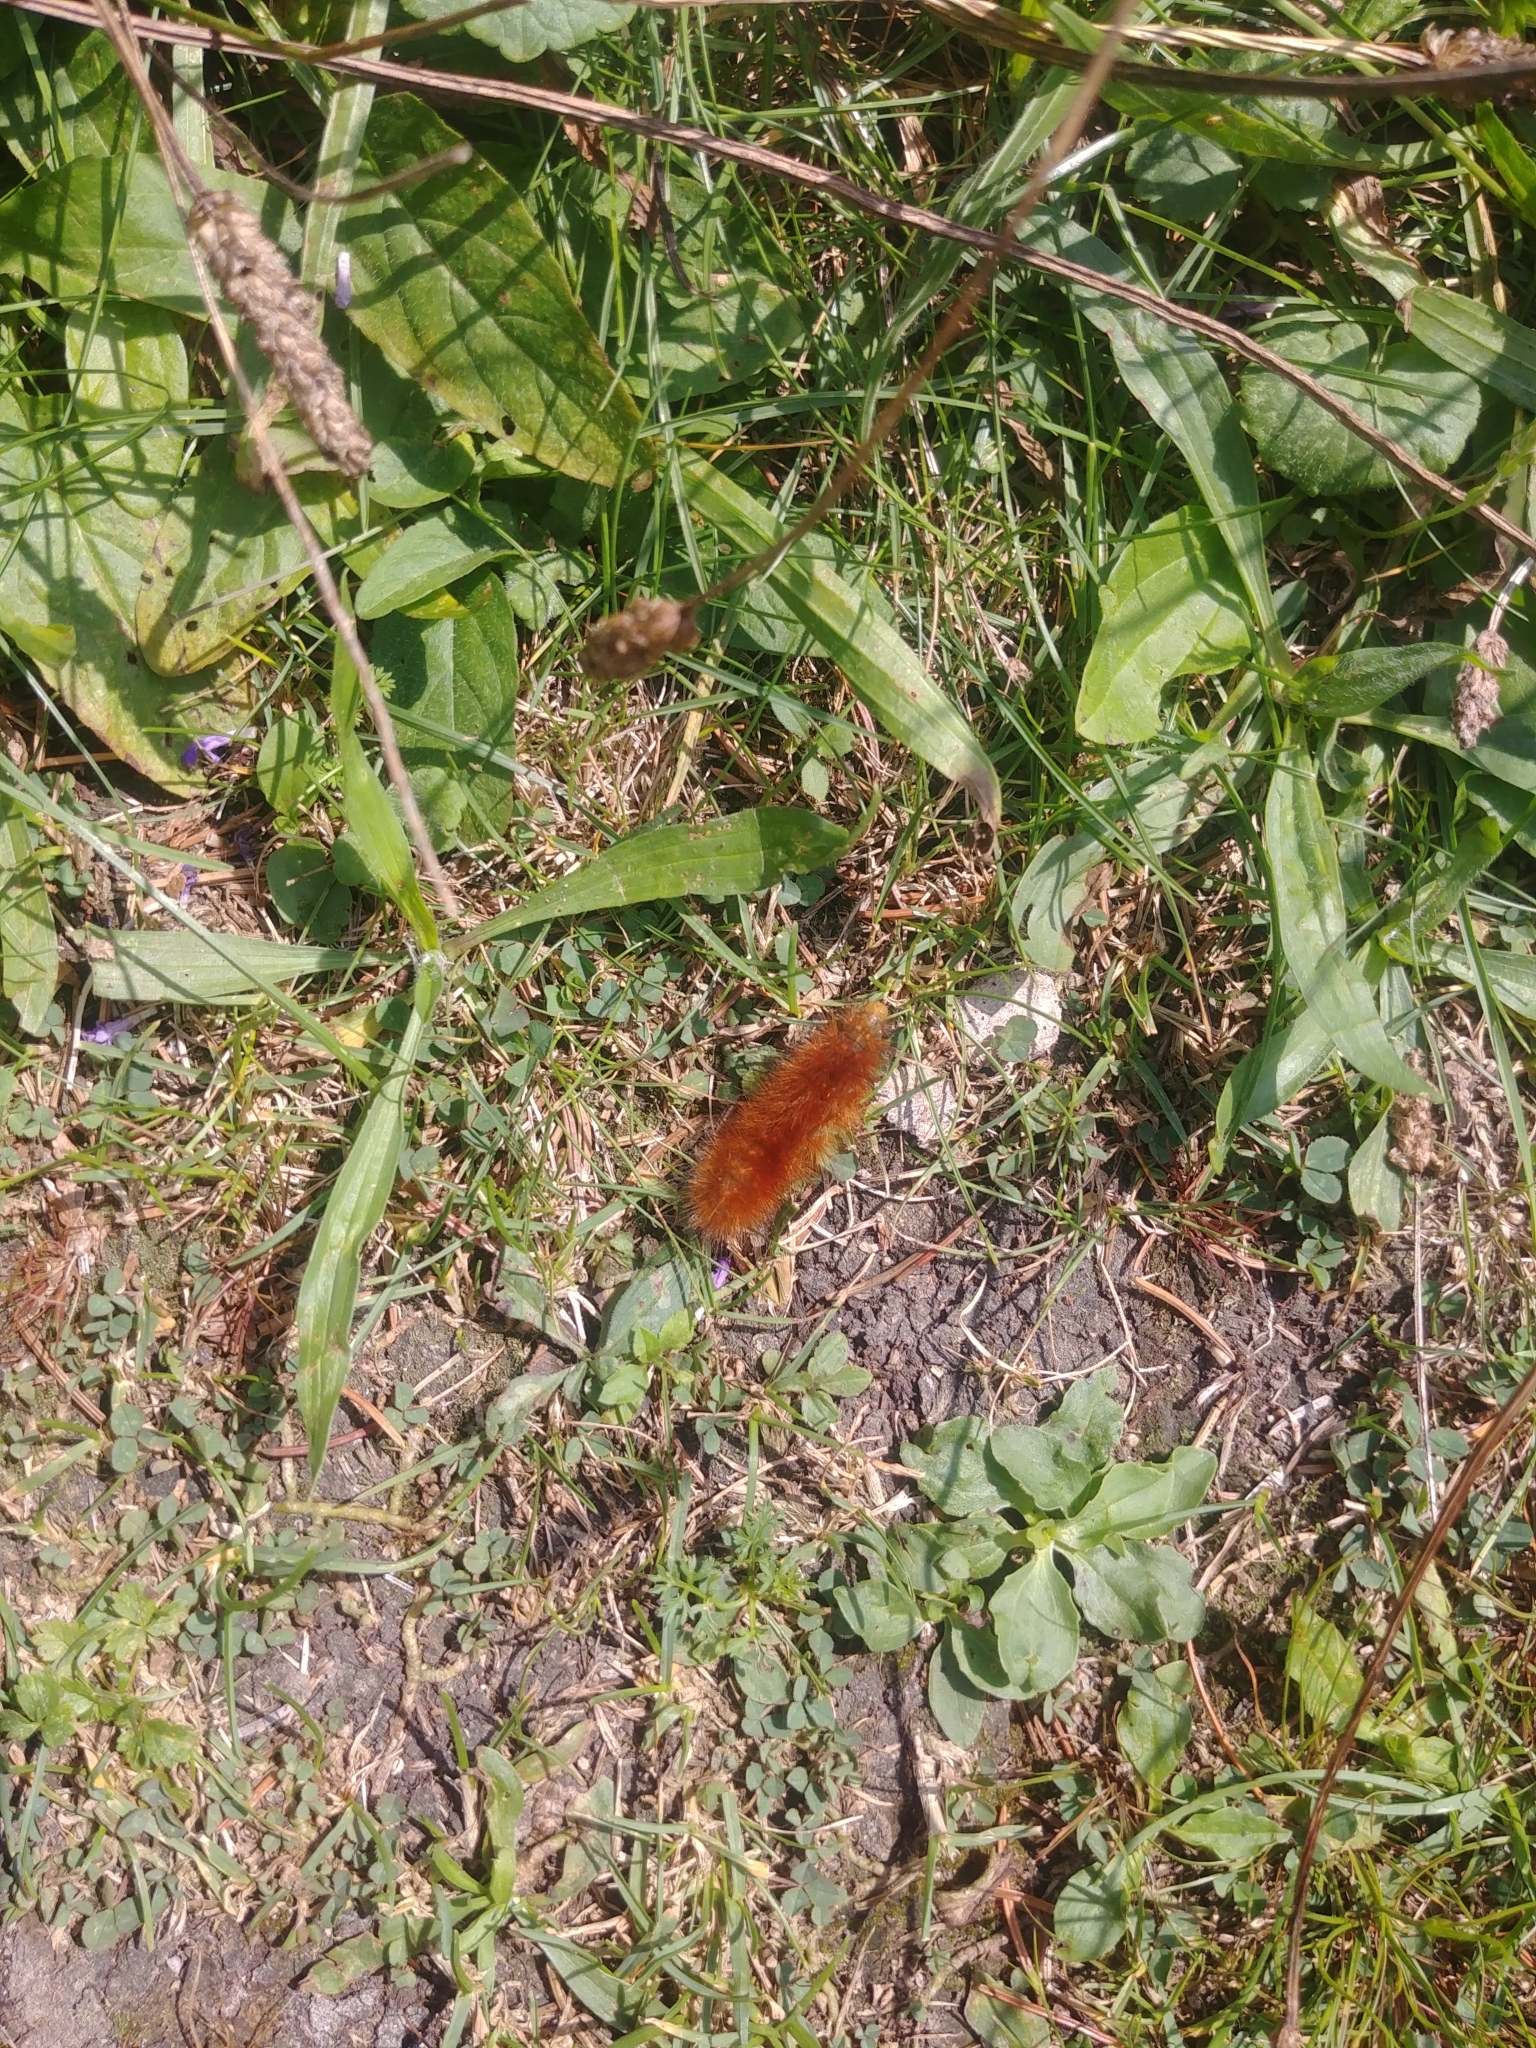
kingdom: Animalia
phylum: Arthropoda
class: Insecta
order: Lepidoptera
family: Erebidae
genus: Spilosoma
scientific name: Spilosoma virginica
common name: Virginia tiger moth
